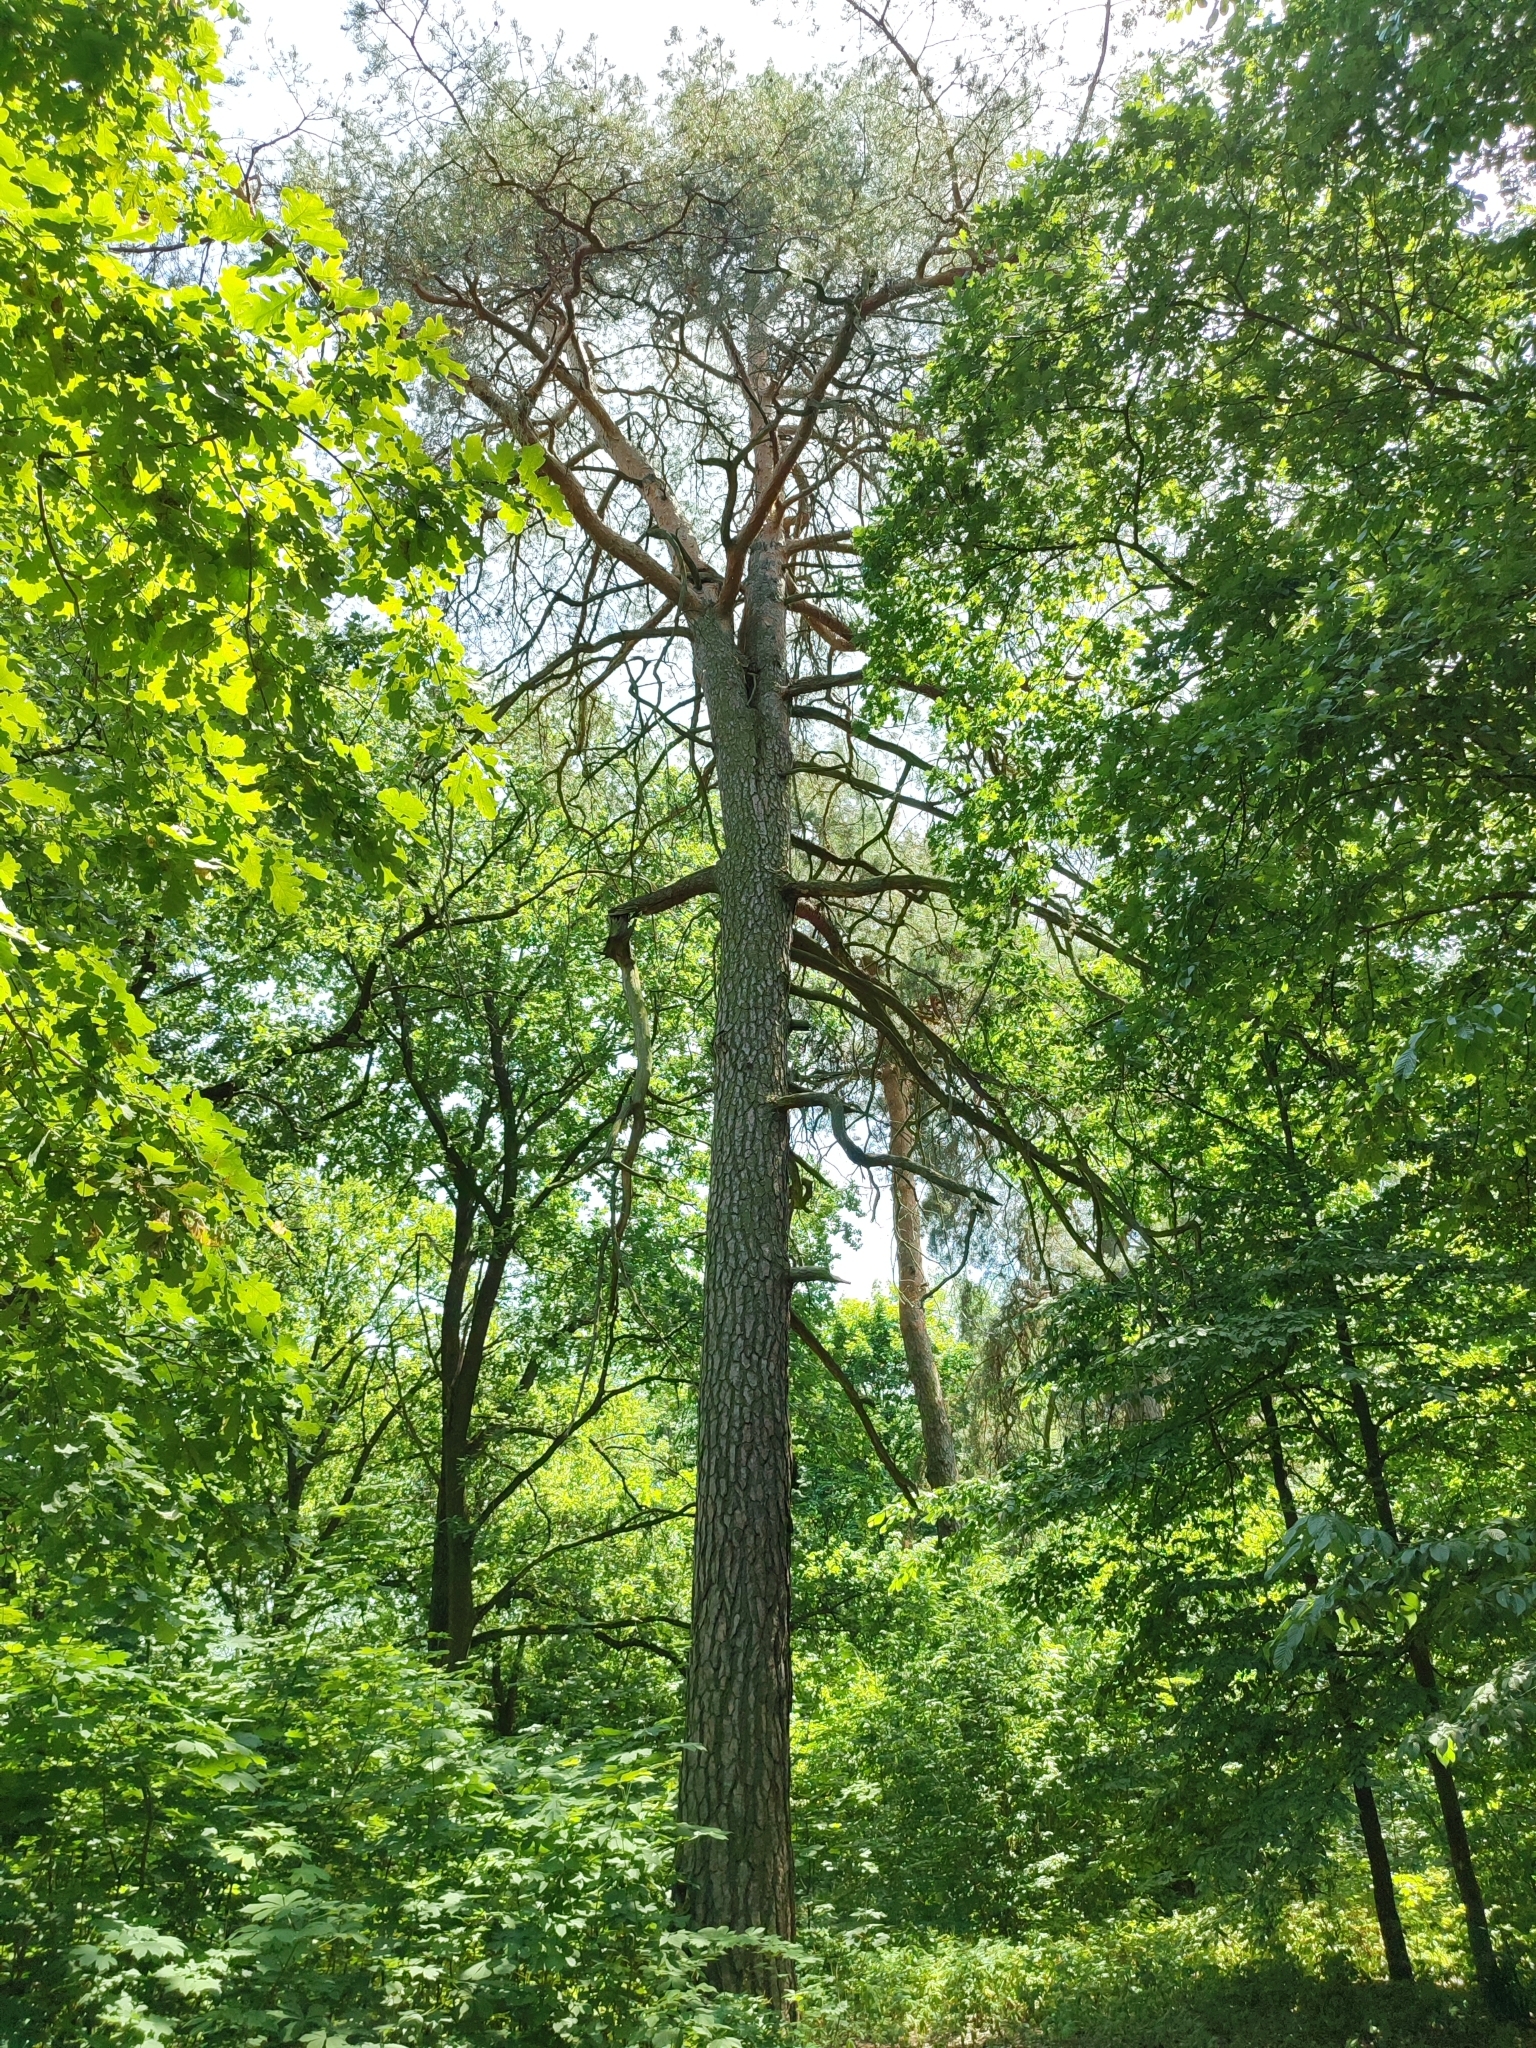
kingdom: Plantae
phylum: Tracheophyta
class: Pinopsida
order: Pinales
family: Pinaceae
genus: Pinus
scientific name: Pinus sylvestris
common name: Scots pine
